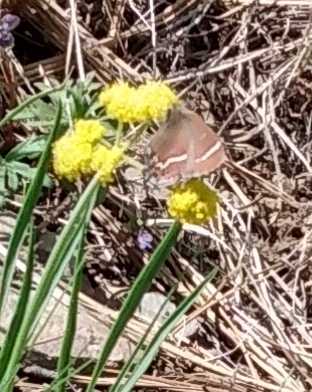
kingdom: Animalia
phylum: Arthropoda
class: Insecta
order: Lepidoptera
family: Lycaenidae
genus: Mitoura
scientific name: Mitoura spinetorum
